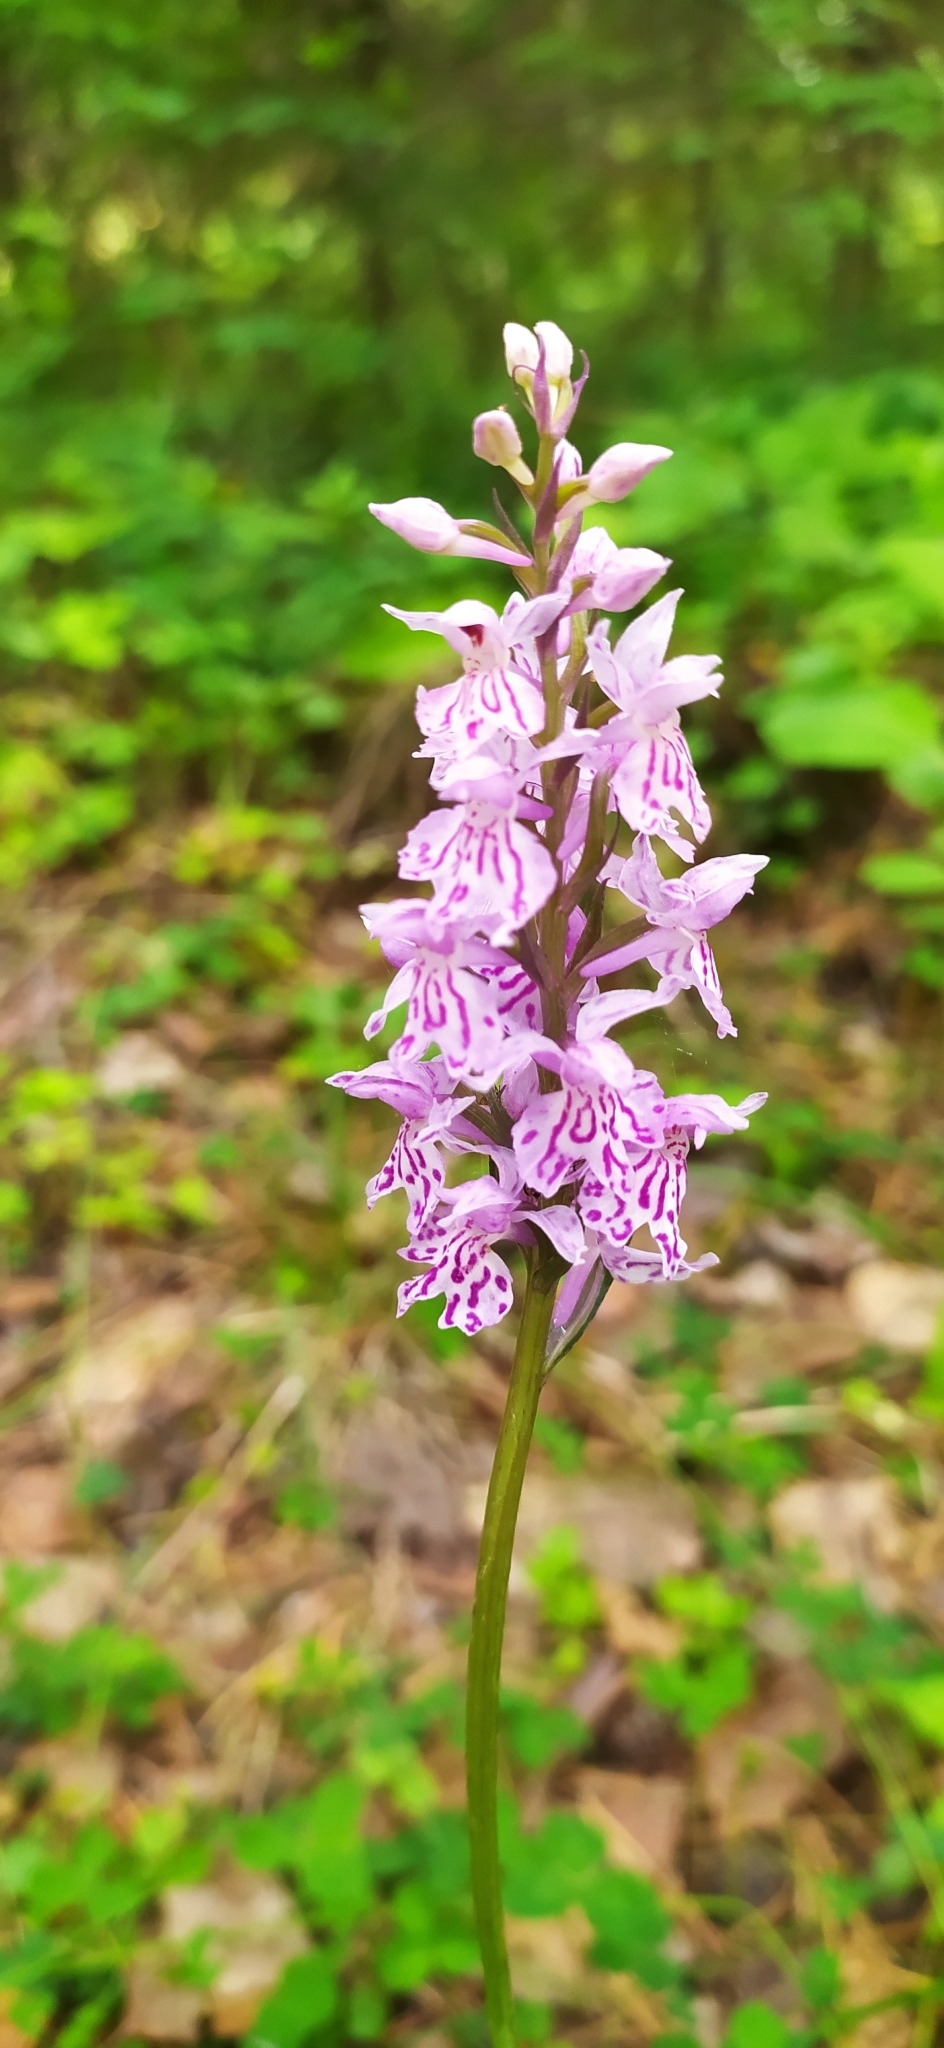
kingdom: Plantae
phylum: Tracheophyta
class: Liliopsida
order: Asparagales
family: Orchidaceae
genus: Dactylorhiza
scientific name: Dactylorhiza maculata
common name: Heath spotted-orchid
